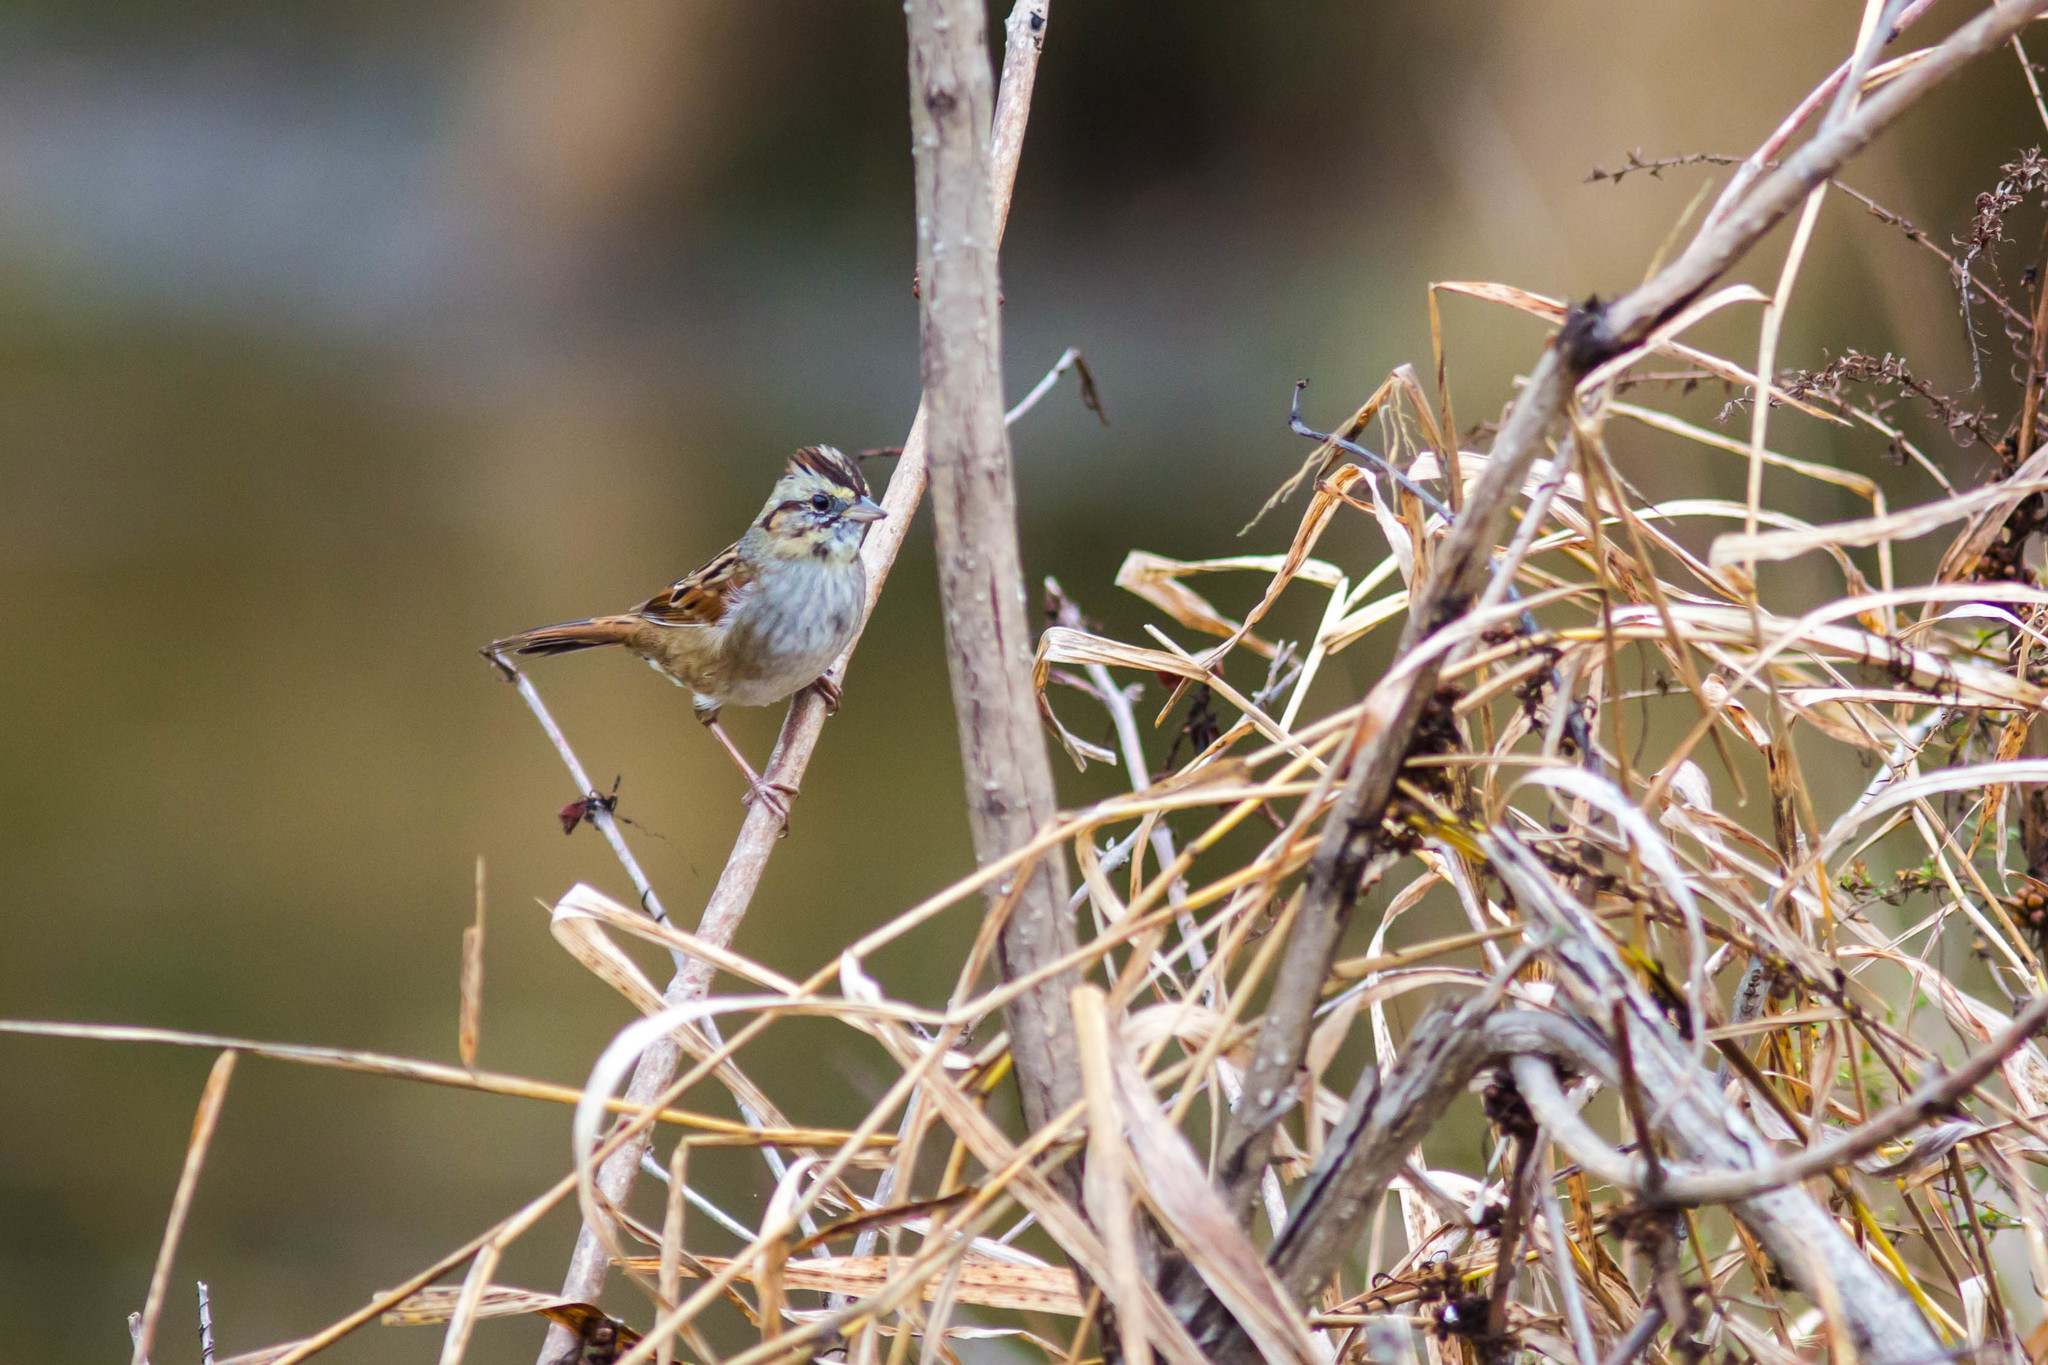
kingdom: Animalia
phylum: Chordata
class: Aves
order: Passeriformes
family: Passerellidae
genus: Melospiza
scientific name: Melospiza georgiana
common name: Swamp sparrow
